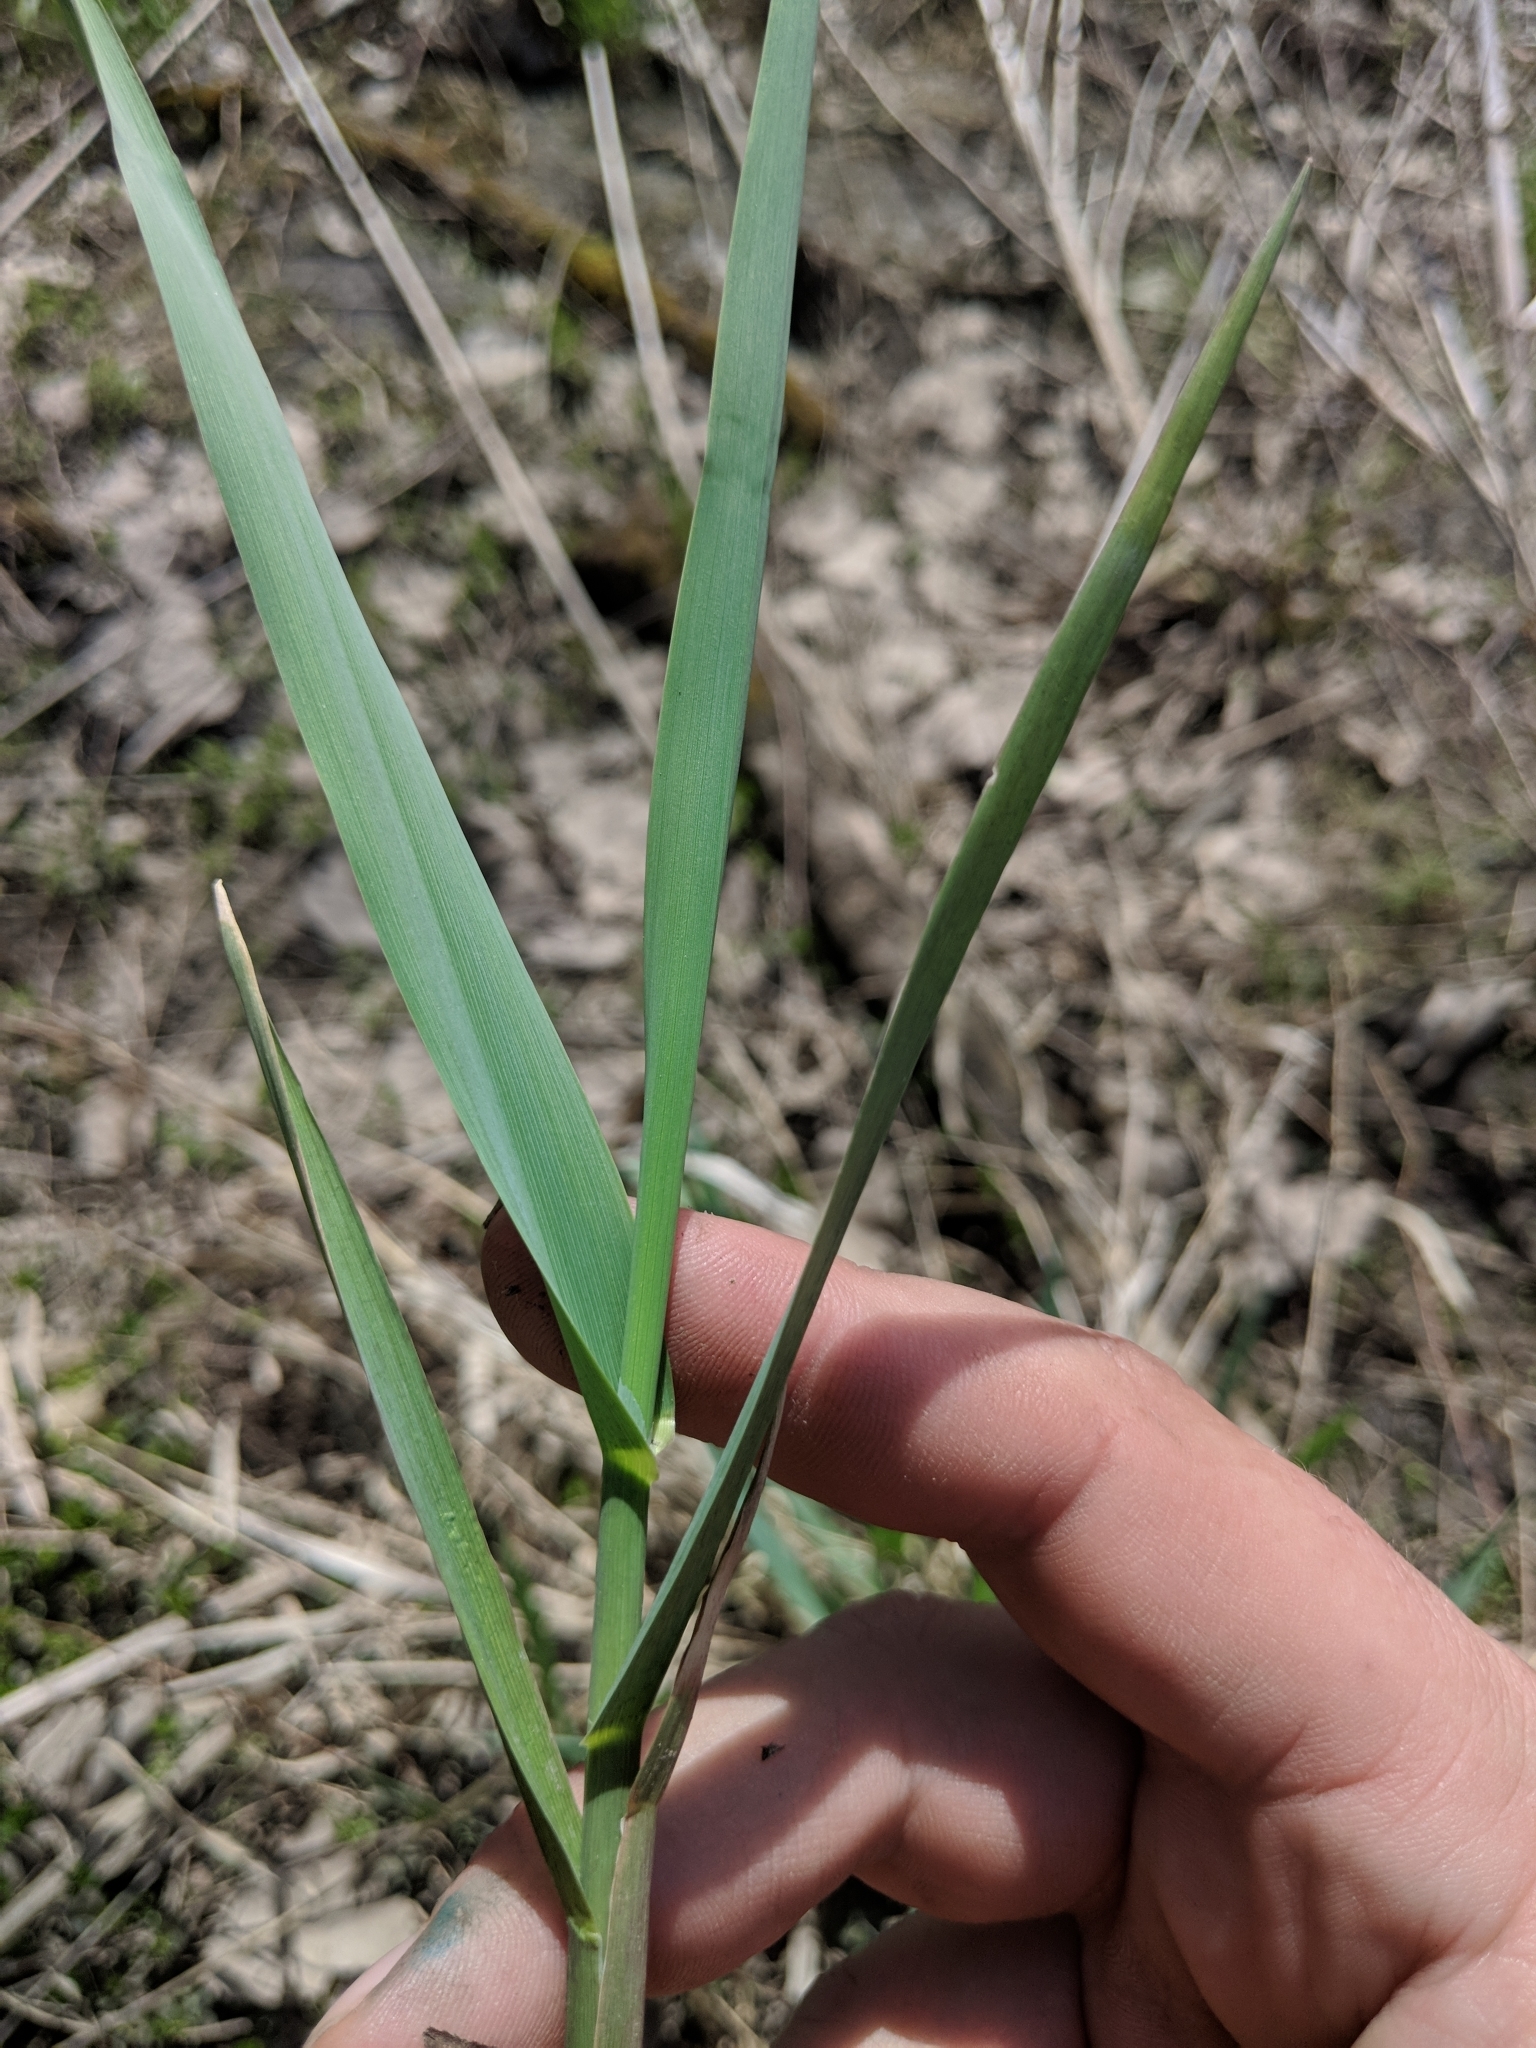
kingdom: Plantae
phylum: Tracheophyta
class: Liliopsida
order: Poales
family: Poaceae
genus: Phalaris
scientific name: Phalaris arundinacea
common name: Reed canary-grass
